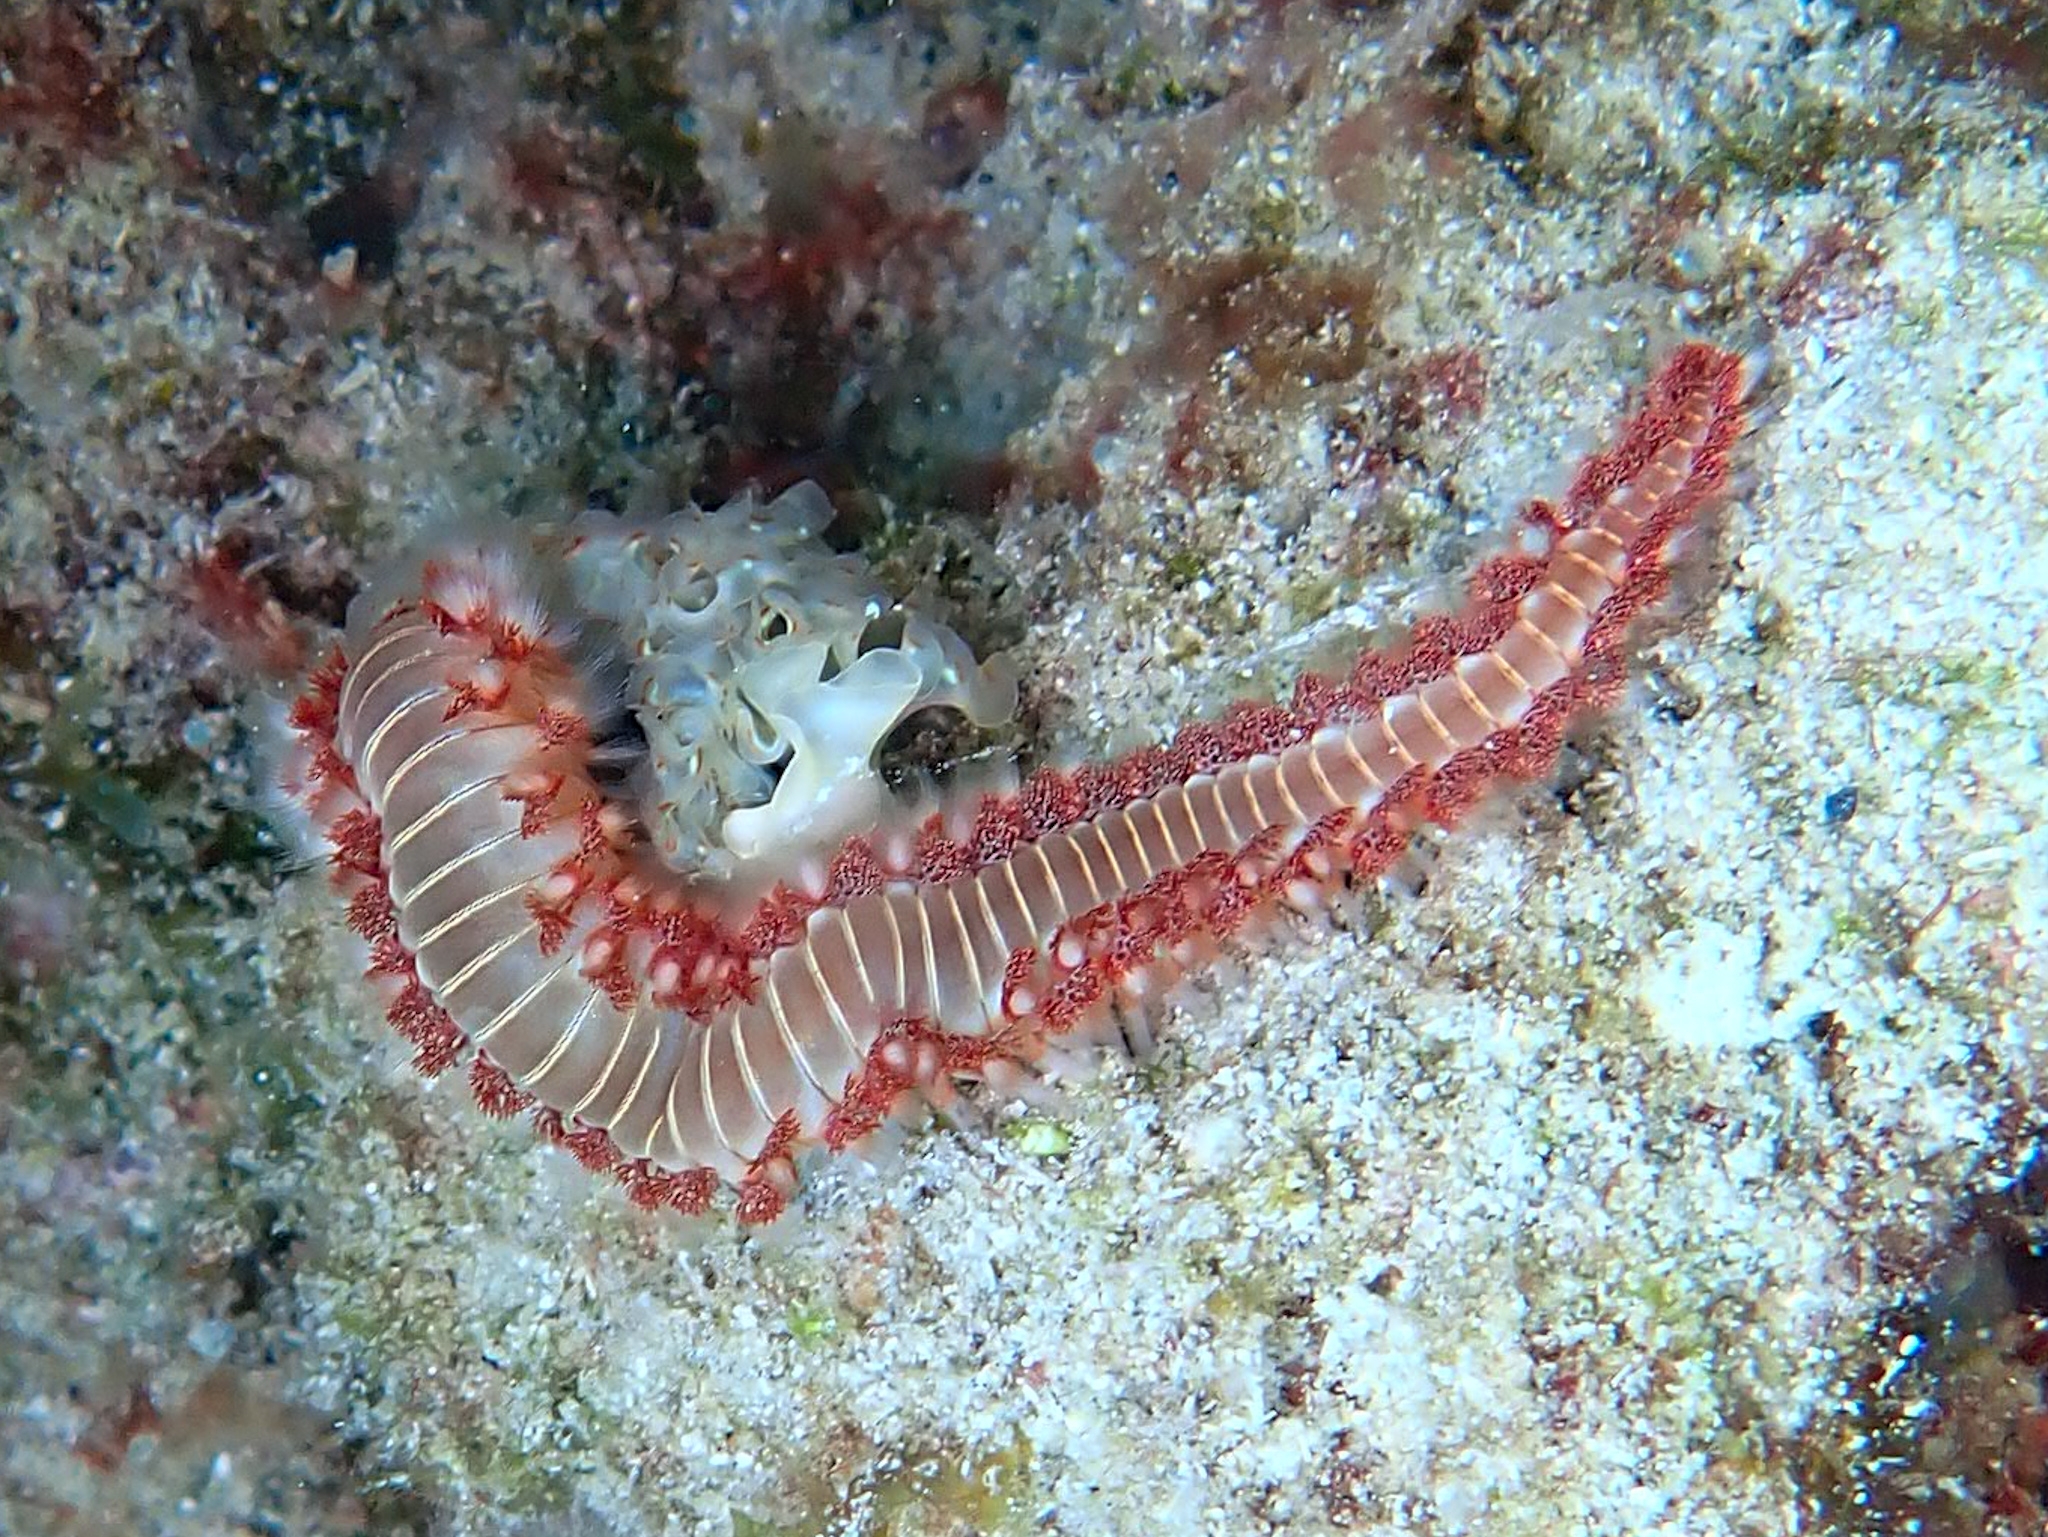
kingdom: Animalia
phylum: Annelida
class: Polychaeta
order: Amphinomida
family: Amphinomidae
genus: Hermodice
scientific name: Hermodice carunculata
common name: Bearded fireworm
